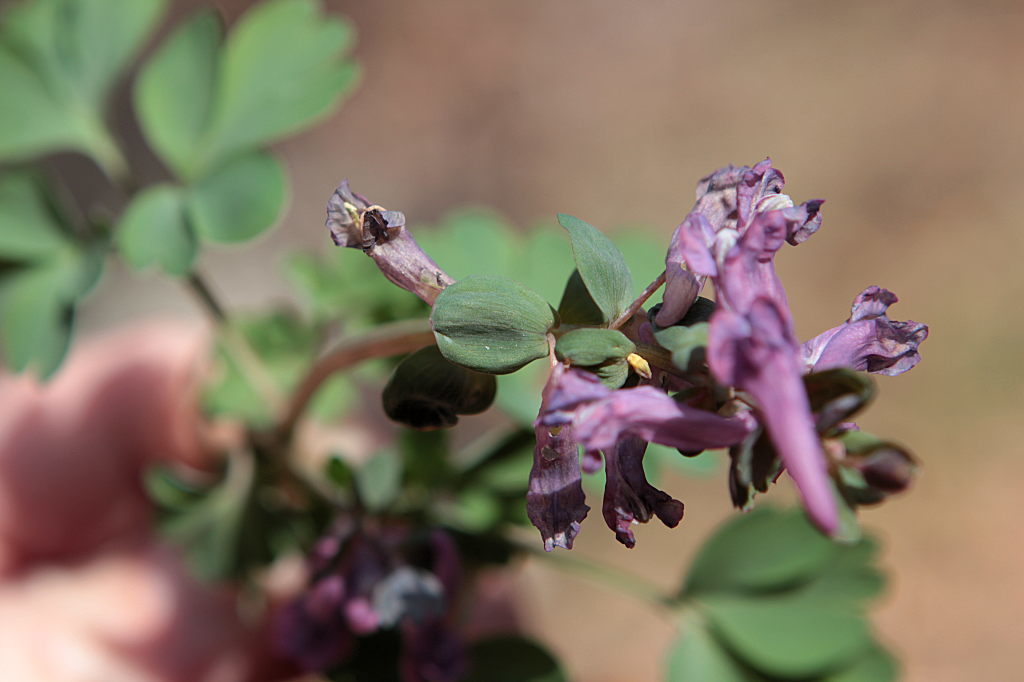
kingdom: Plantae
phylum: Tracheophyta
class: Magnoliopsida
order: Ranunculales
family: Papaveraceae
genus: Corydalis
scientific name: Corydalis solida
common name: Bird-in-a-bush
